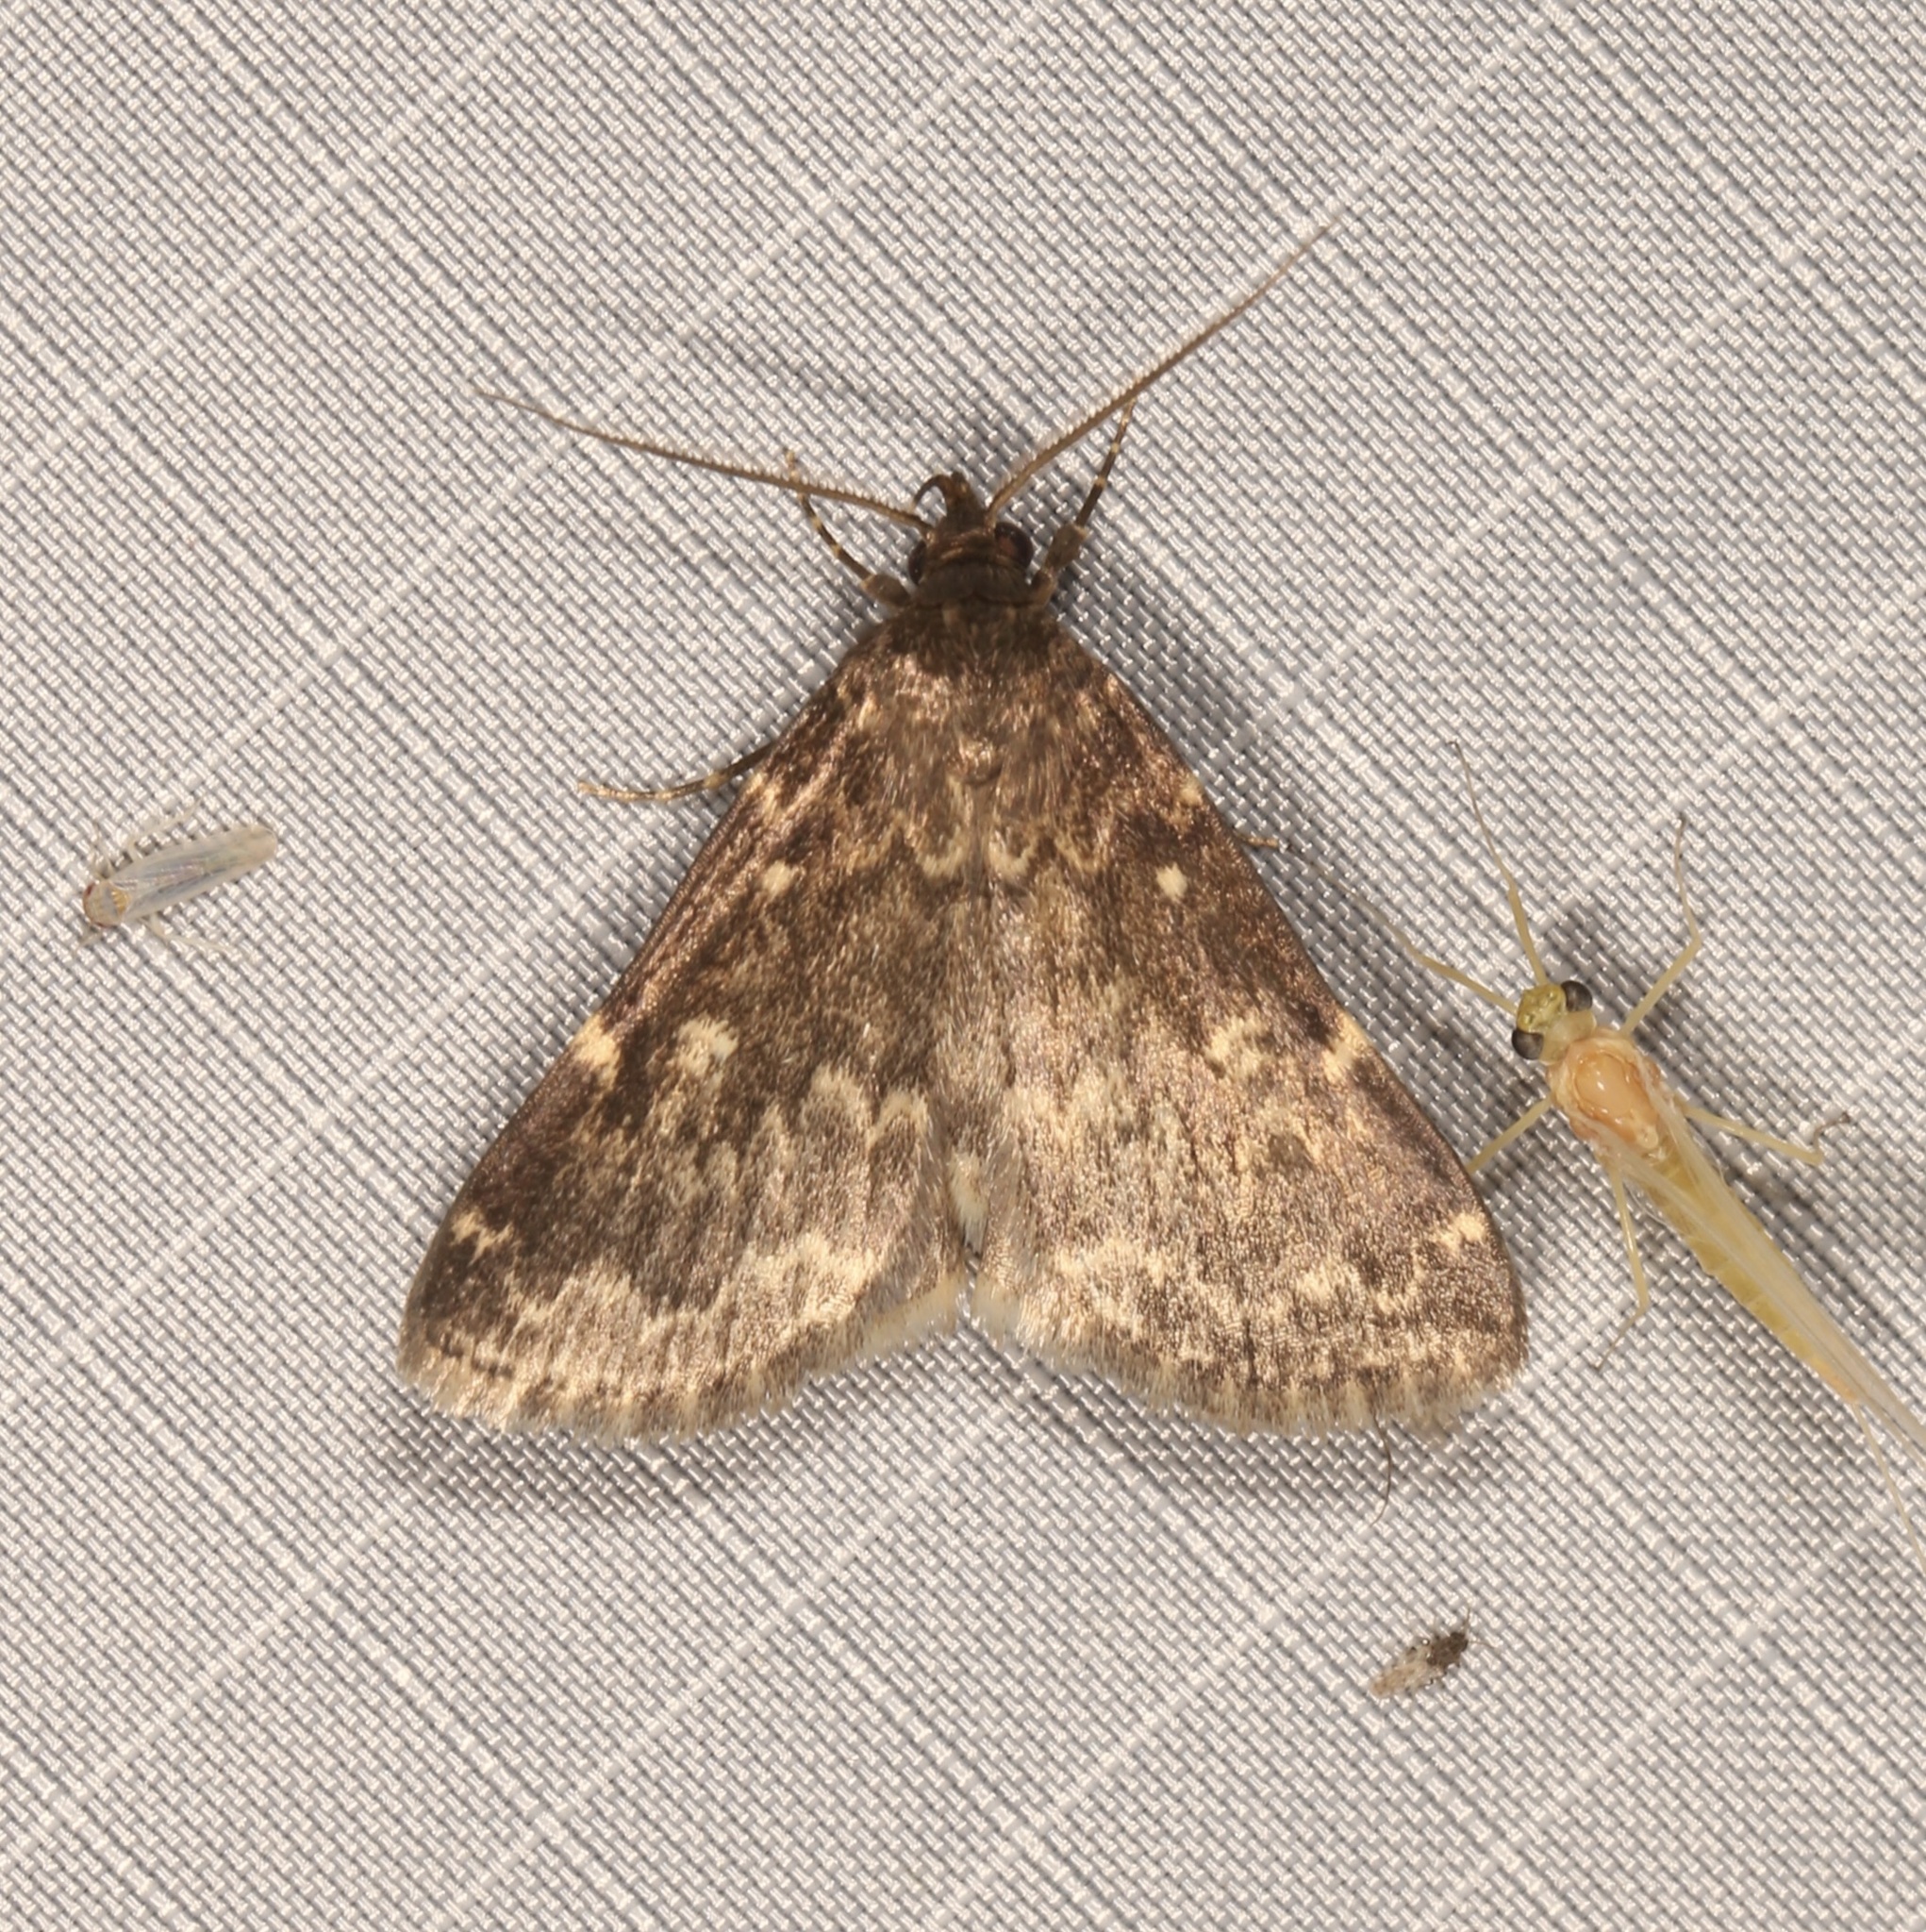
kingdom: Animalia
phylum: Arthropoda
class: Insecta
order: Lepidoptera
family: Erebidae
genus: Idia
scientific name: Idia lubricalis
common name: Twin-striped tabby
